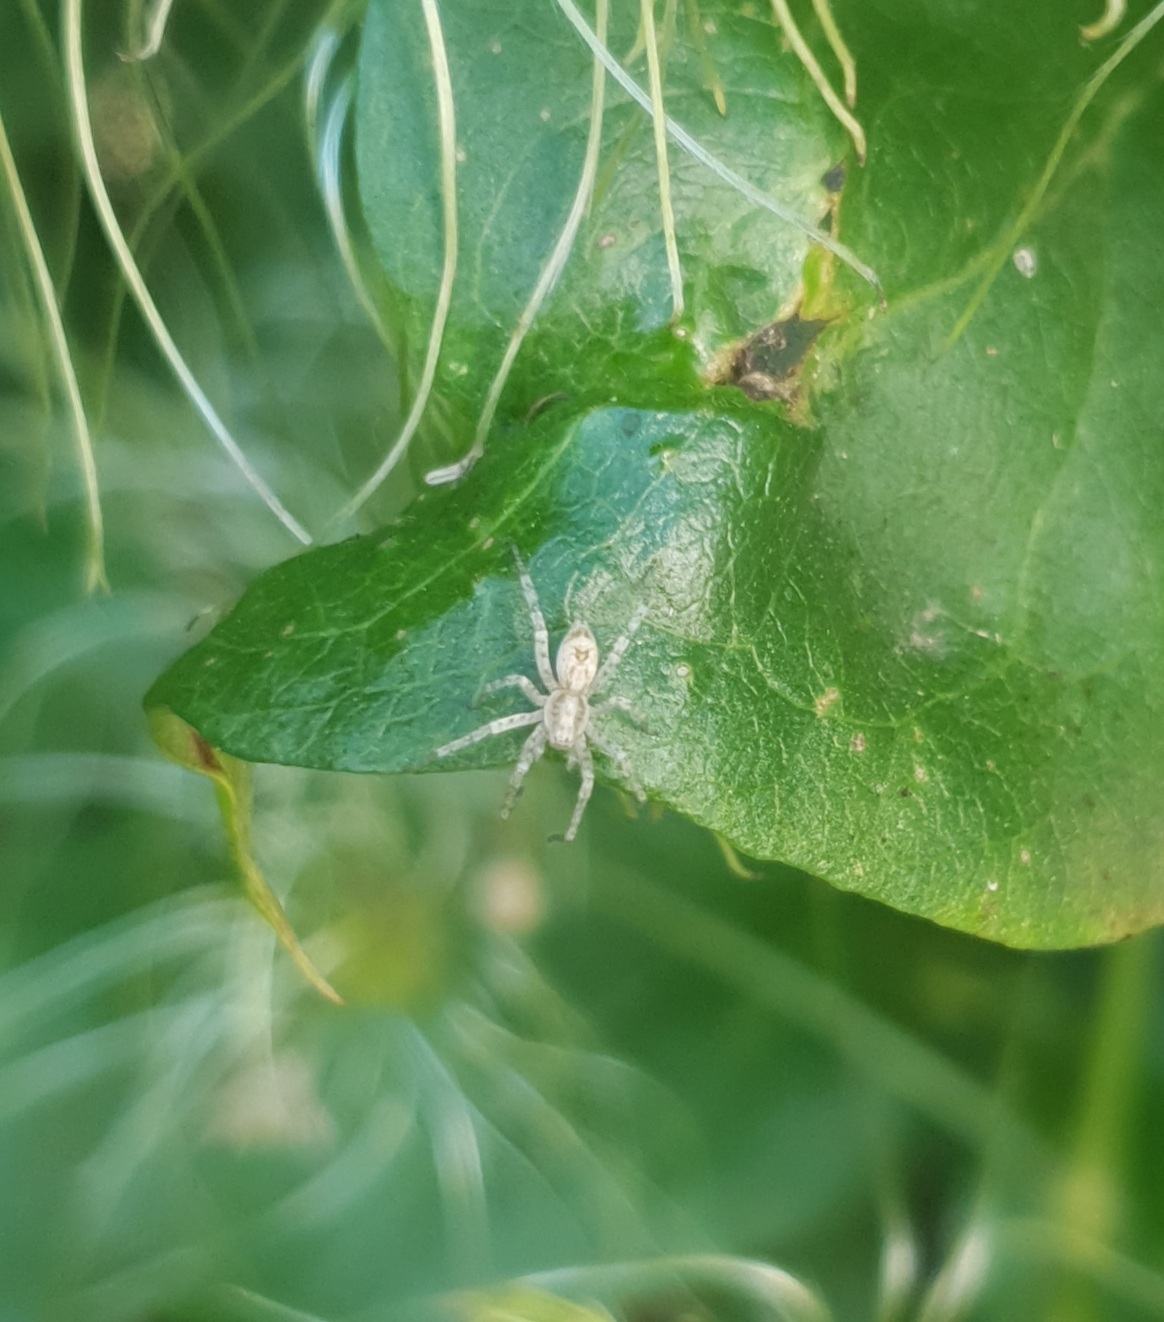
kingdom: Animalia
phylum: Arthropoda
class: Arachnida
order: Araneae
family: Anyphaenidae
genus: Anyphaena
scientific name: Anyphaena accentuata
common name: Buzzing spider
